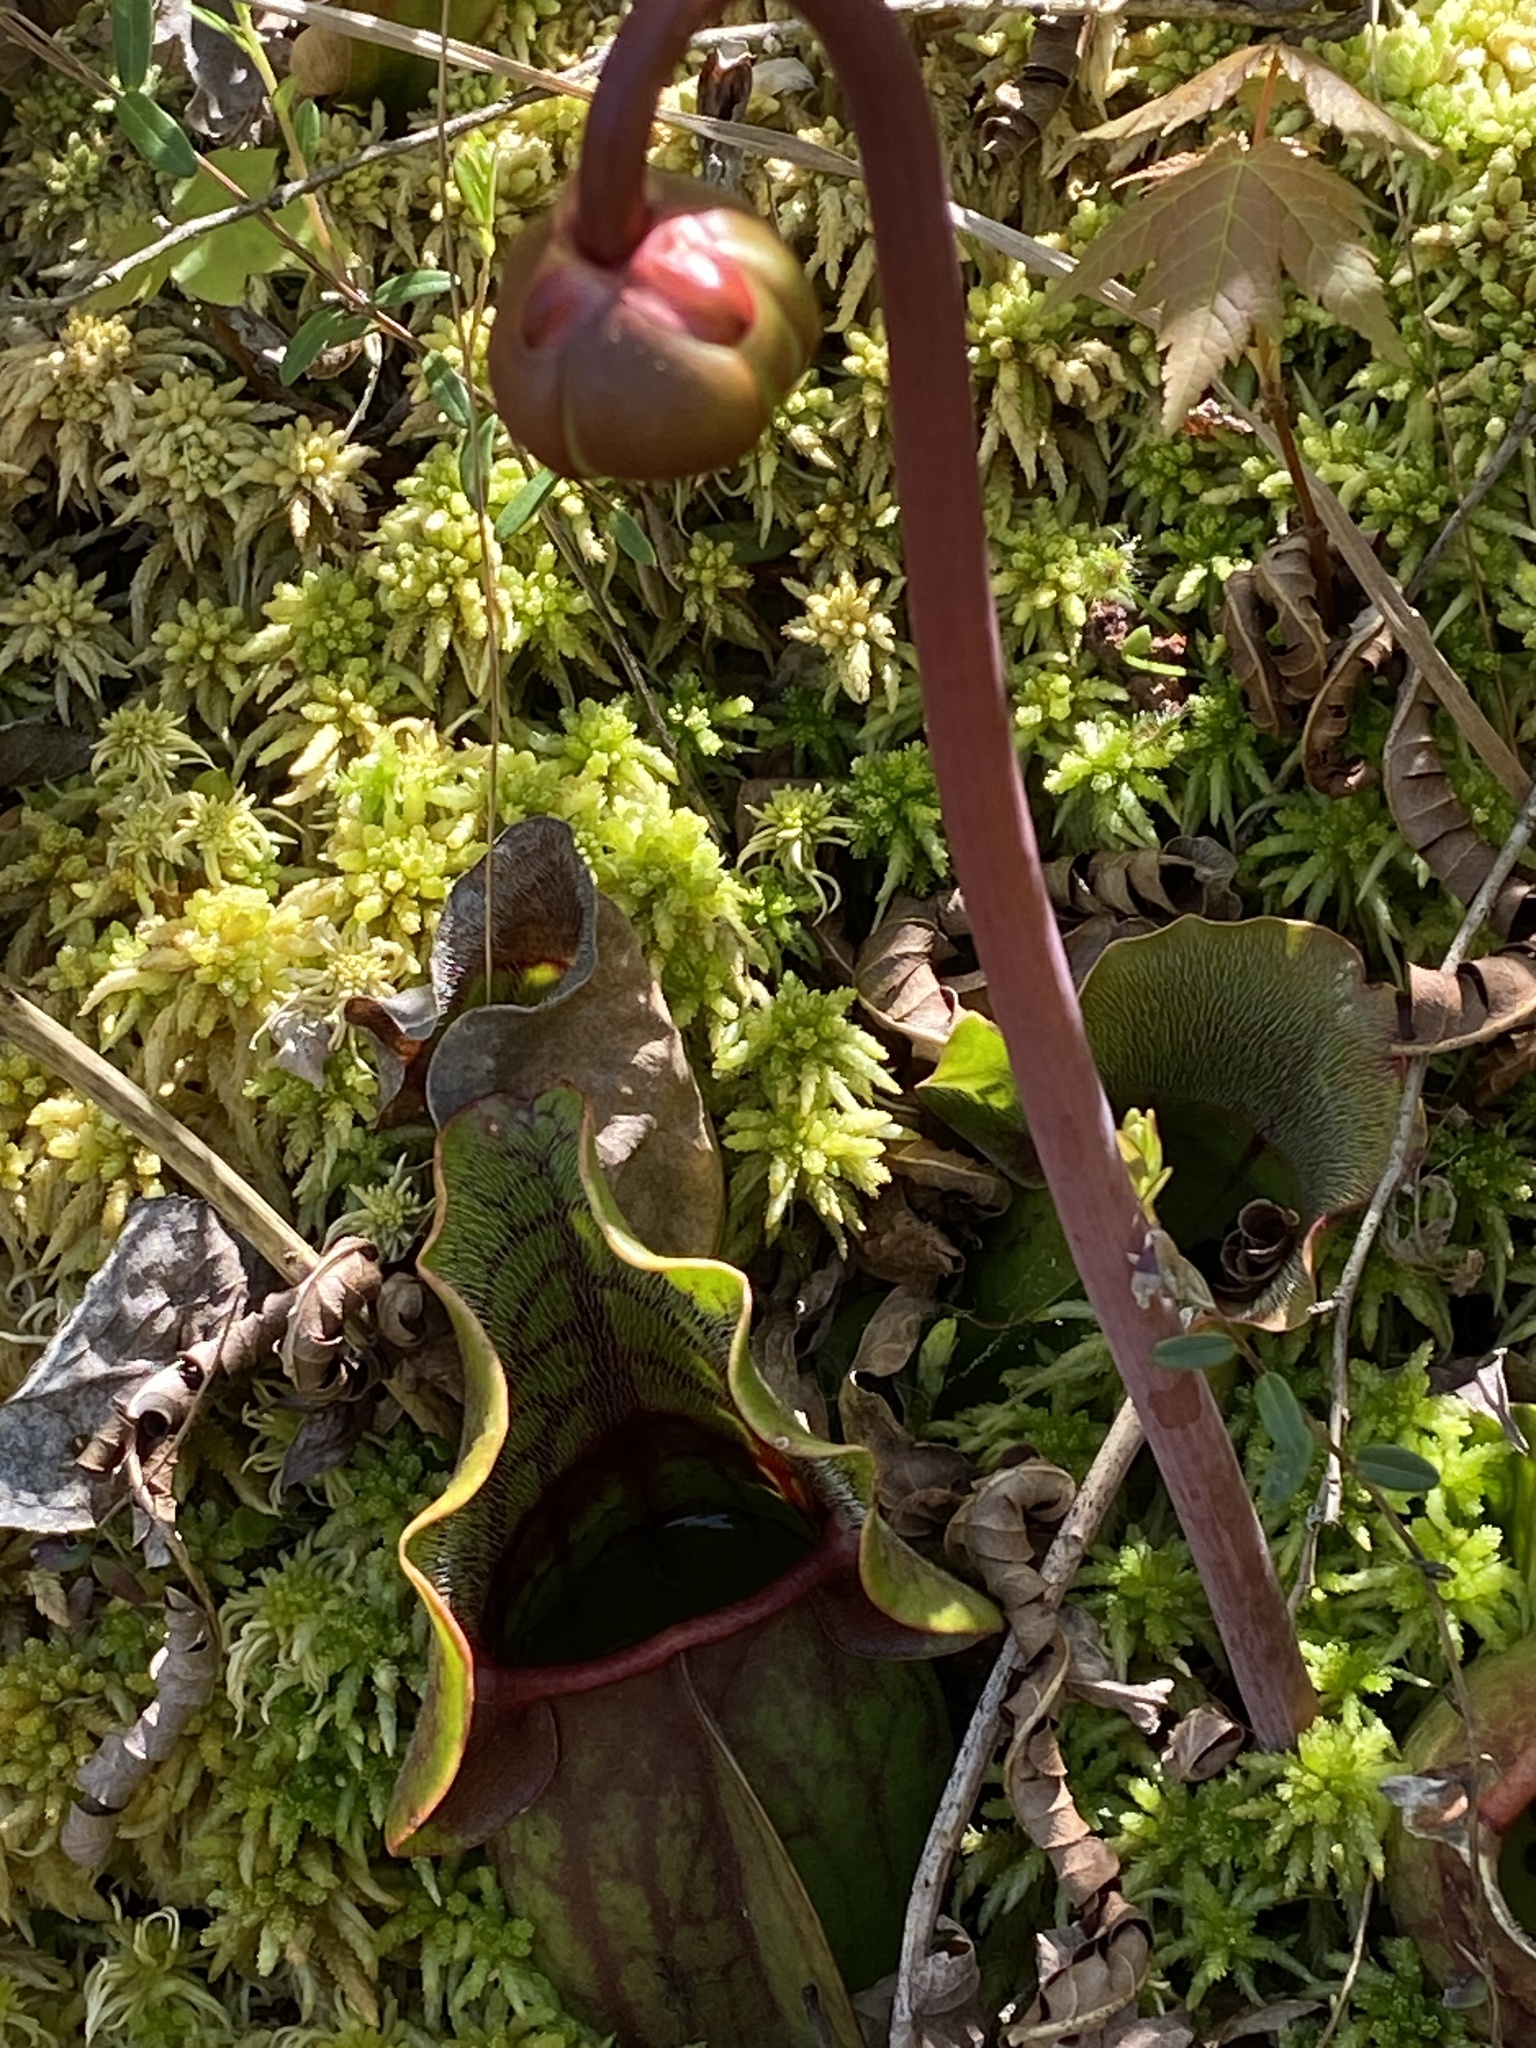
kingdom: Plantae
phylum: Tracheophyta
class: Magnoliopsida
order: Ericales
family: Sarraceniaceae
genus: Sarracenia
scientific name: Sarracenia purpurea
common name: Pitcherplant
